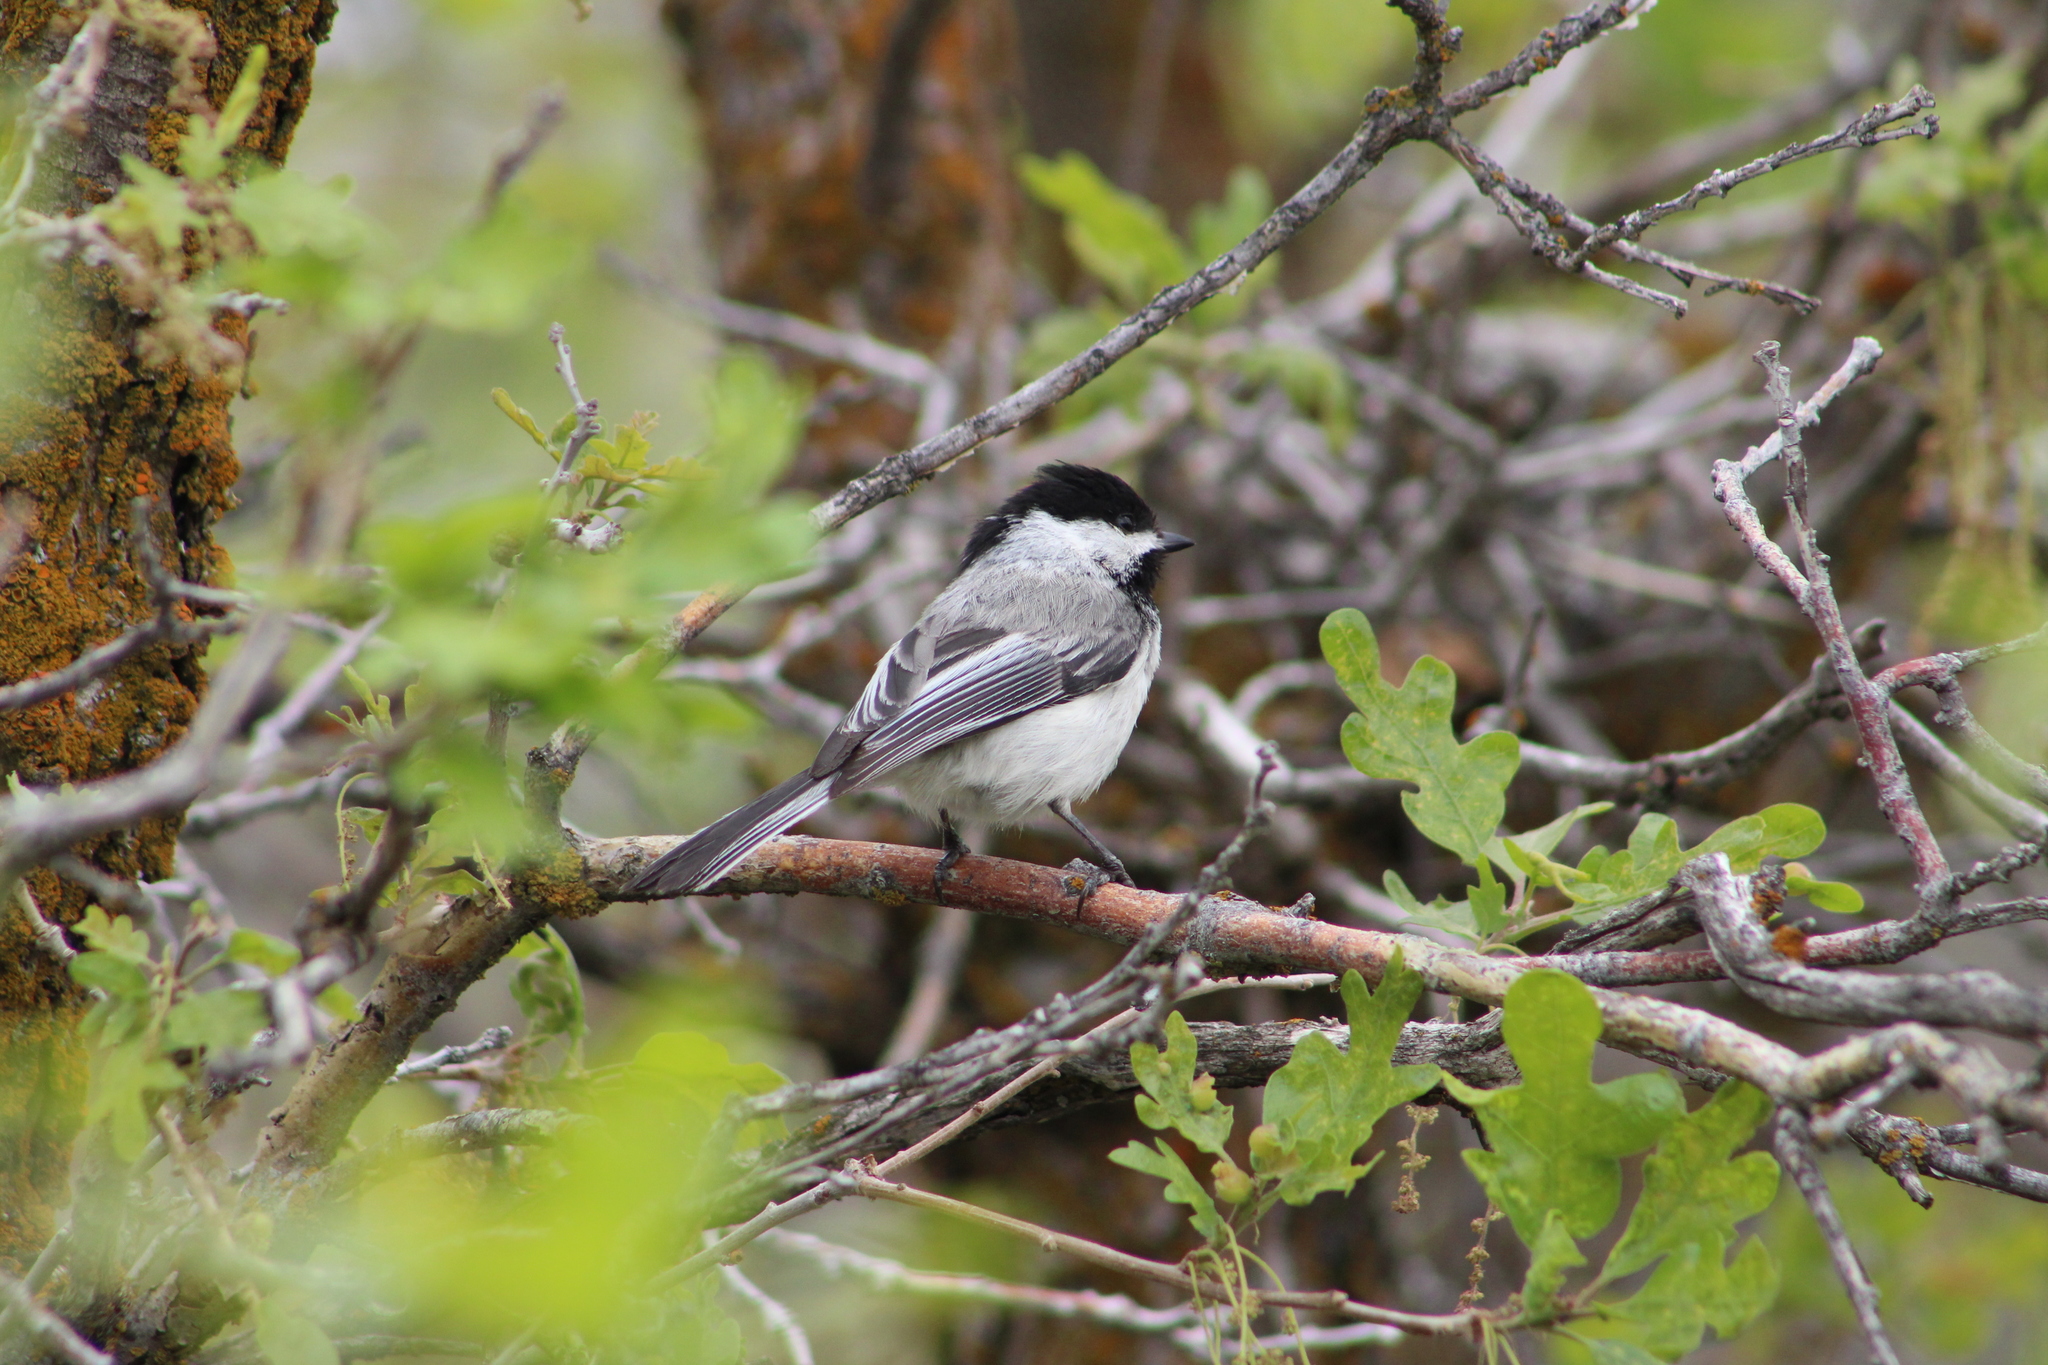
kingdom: Animalia
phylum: Chordata
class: Aves
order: Passeriformes
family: Paridae
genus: Poecile
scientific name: Poecile atricapillus
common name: Black-capped chickadee
